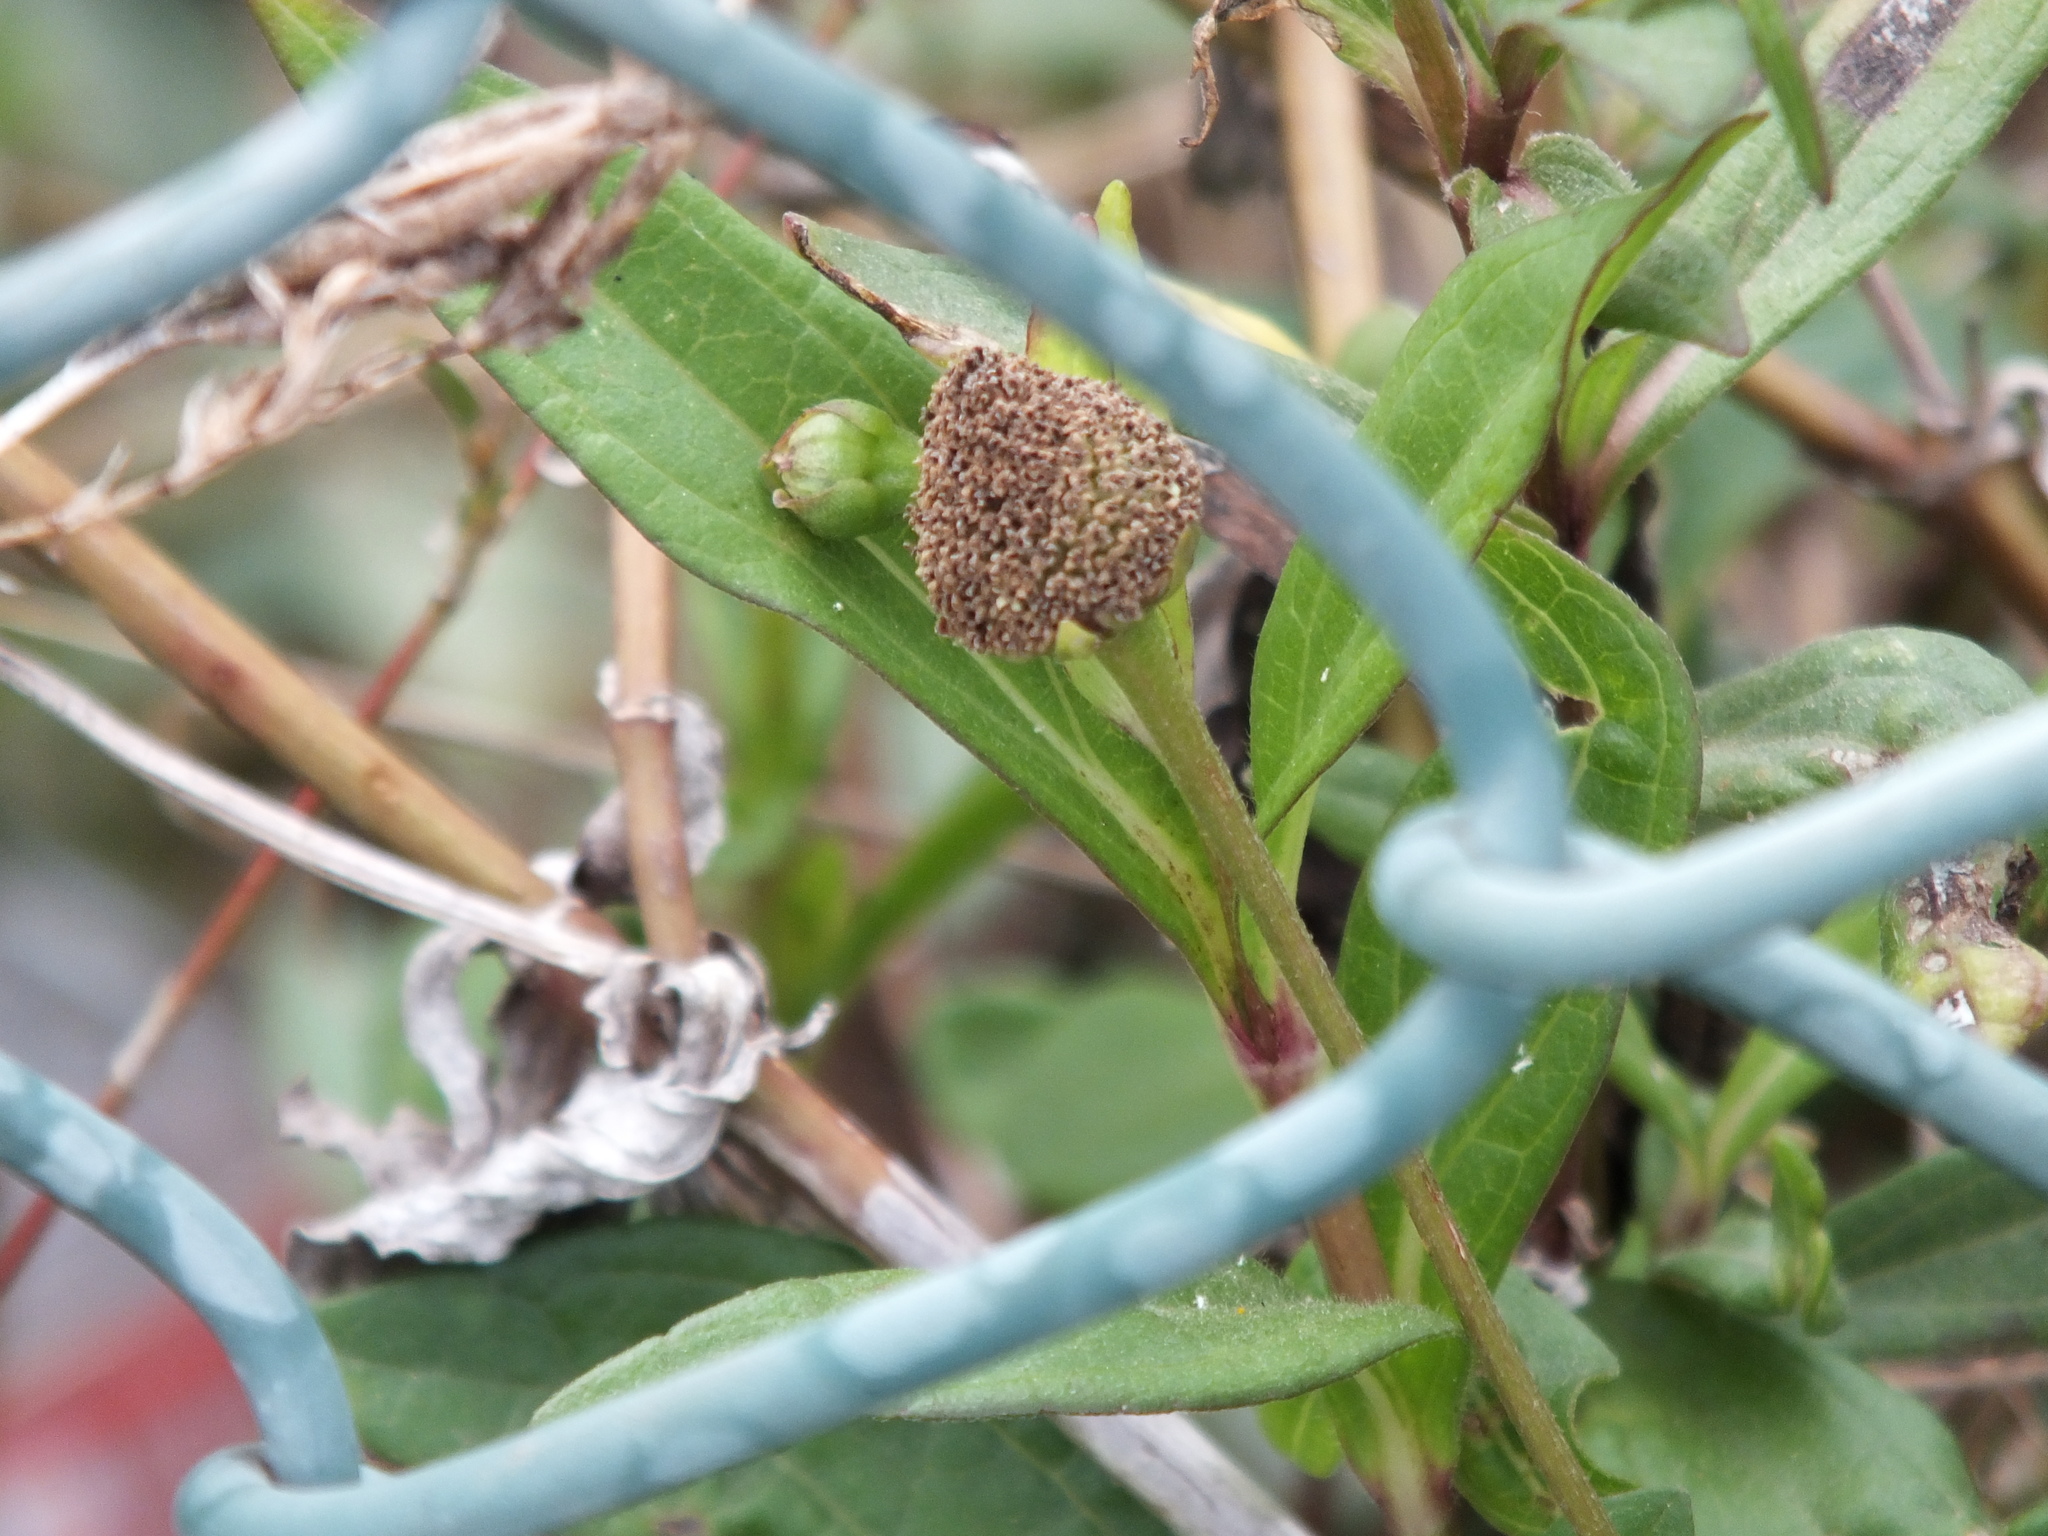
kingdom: Plantae
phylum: Tracheophyta
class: Magnoliopsida
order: Asterales
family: Asteraceae
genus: Spilanthes
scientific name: Spilanthes urens
